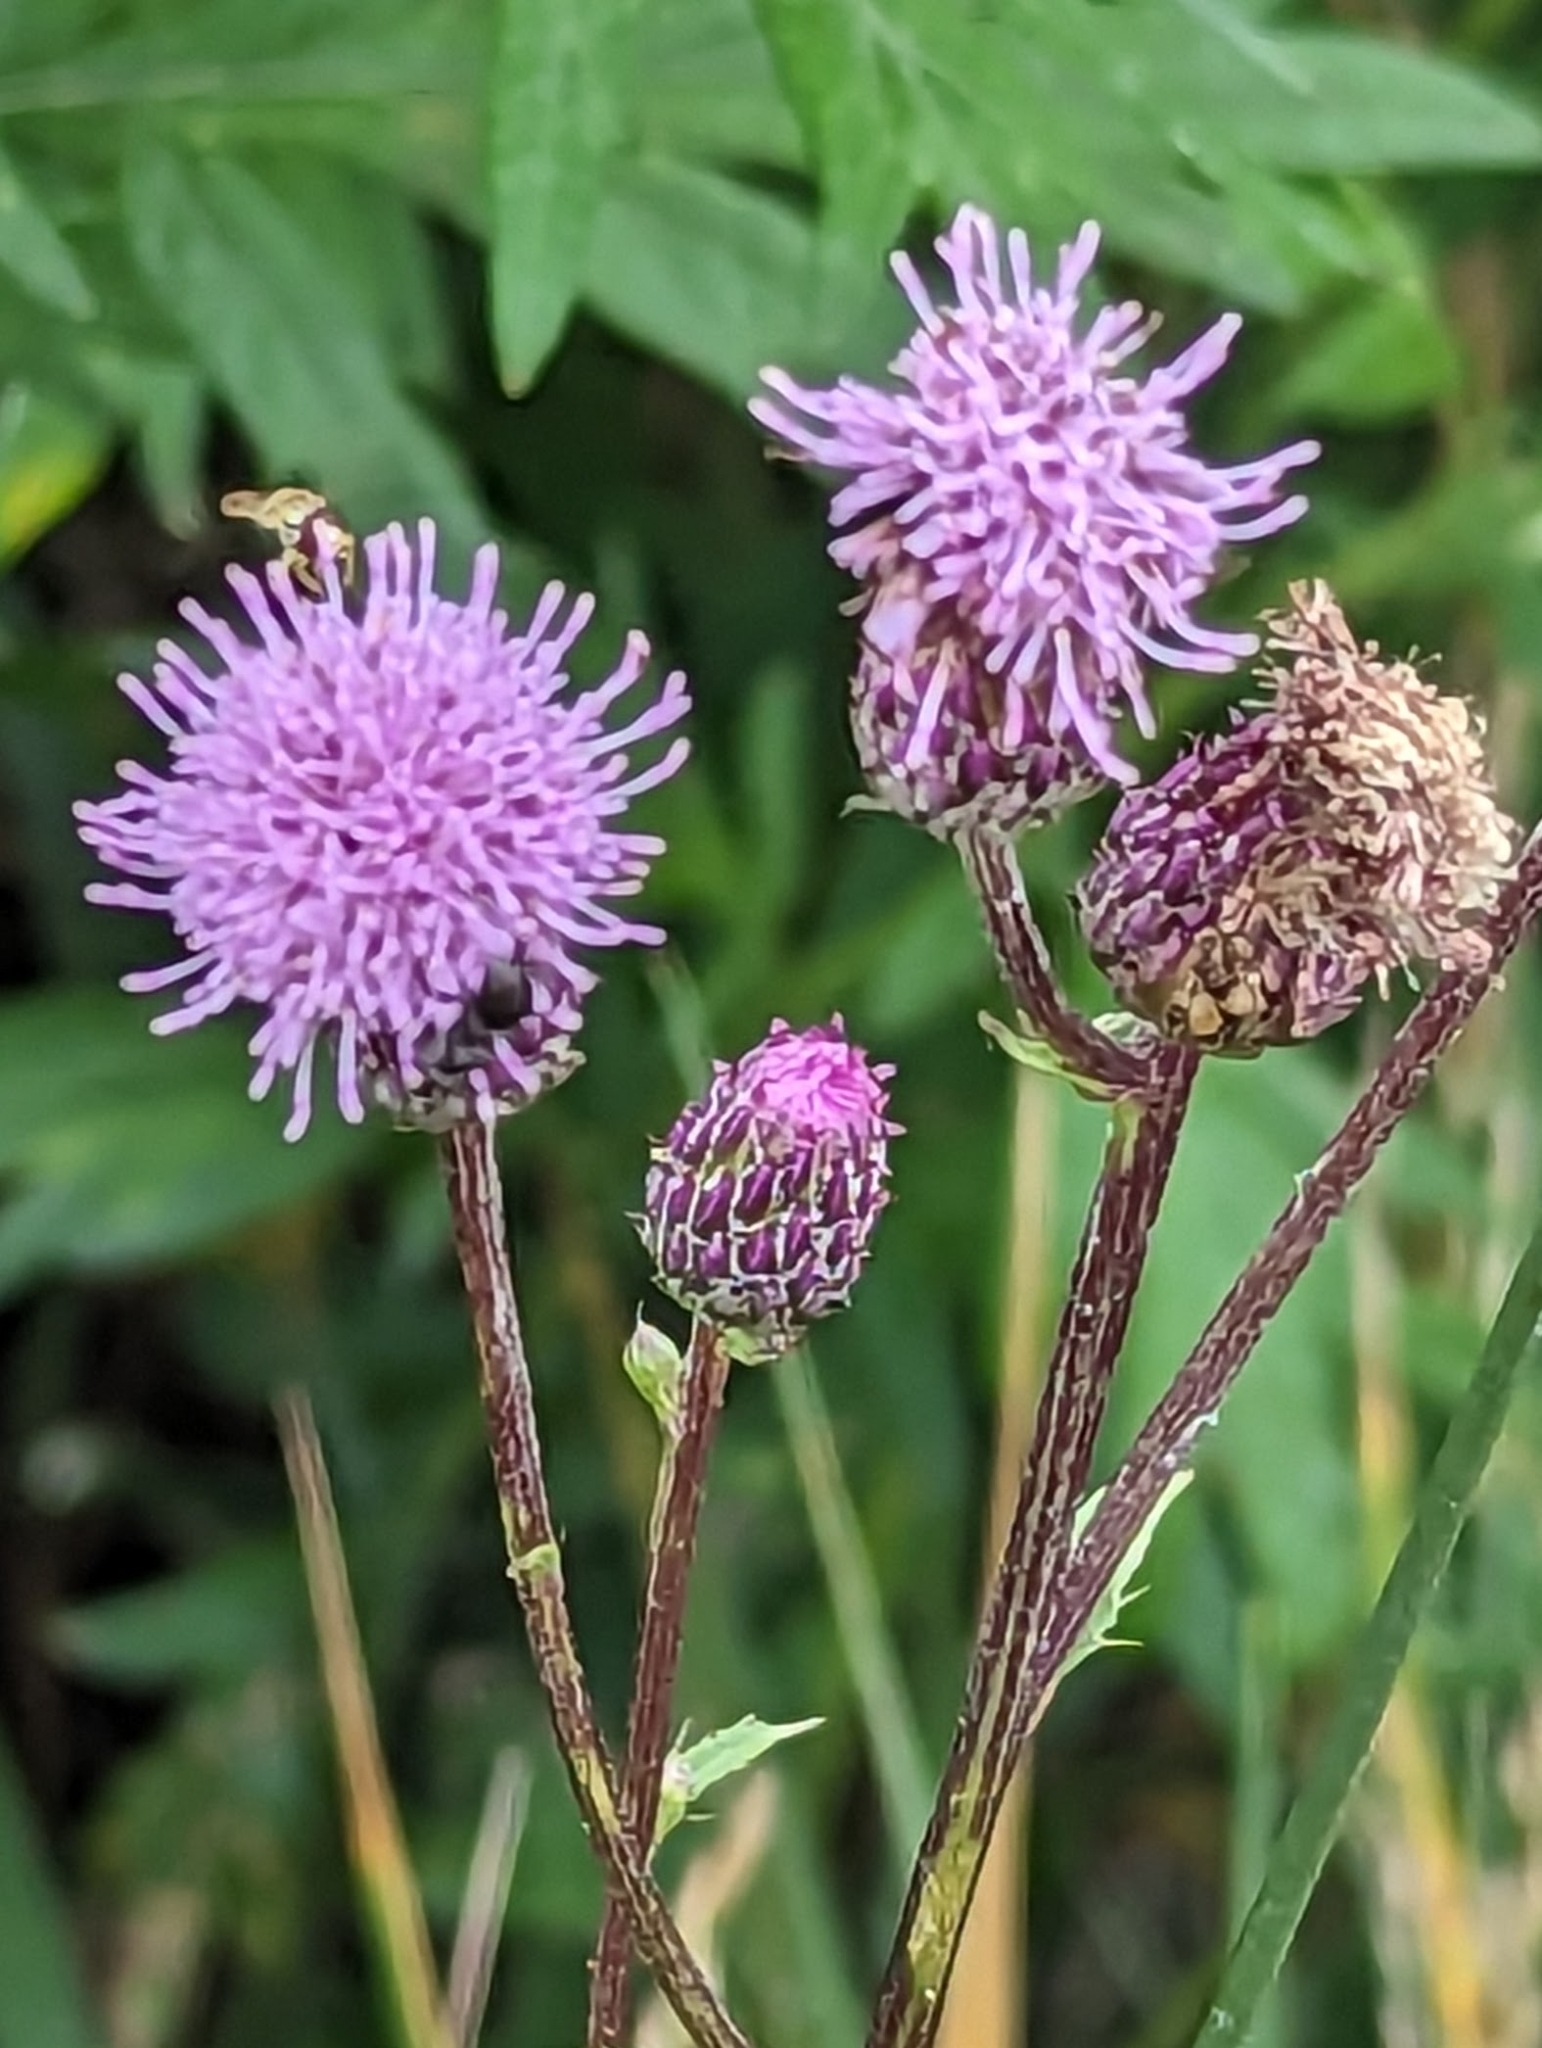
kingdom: Plantae
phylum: Tracheophyta
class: Magnoliopsida
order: Asterales
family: Asteraceae
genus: Cirsium
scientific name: Cirsium arvense
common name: Creeping thistle
